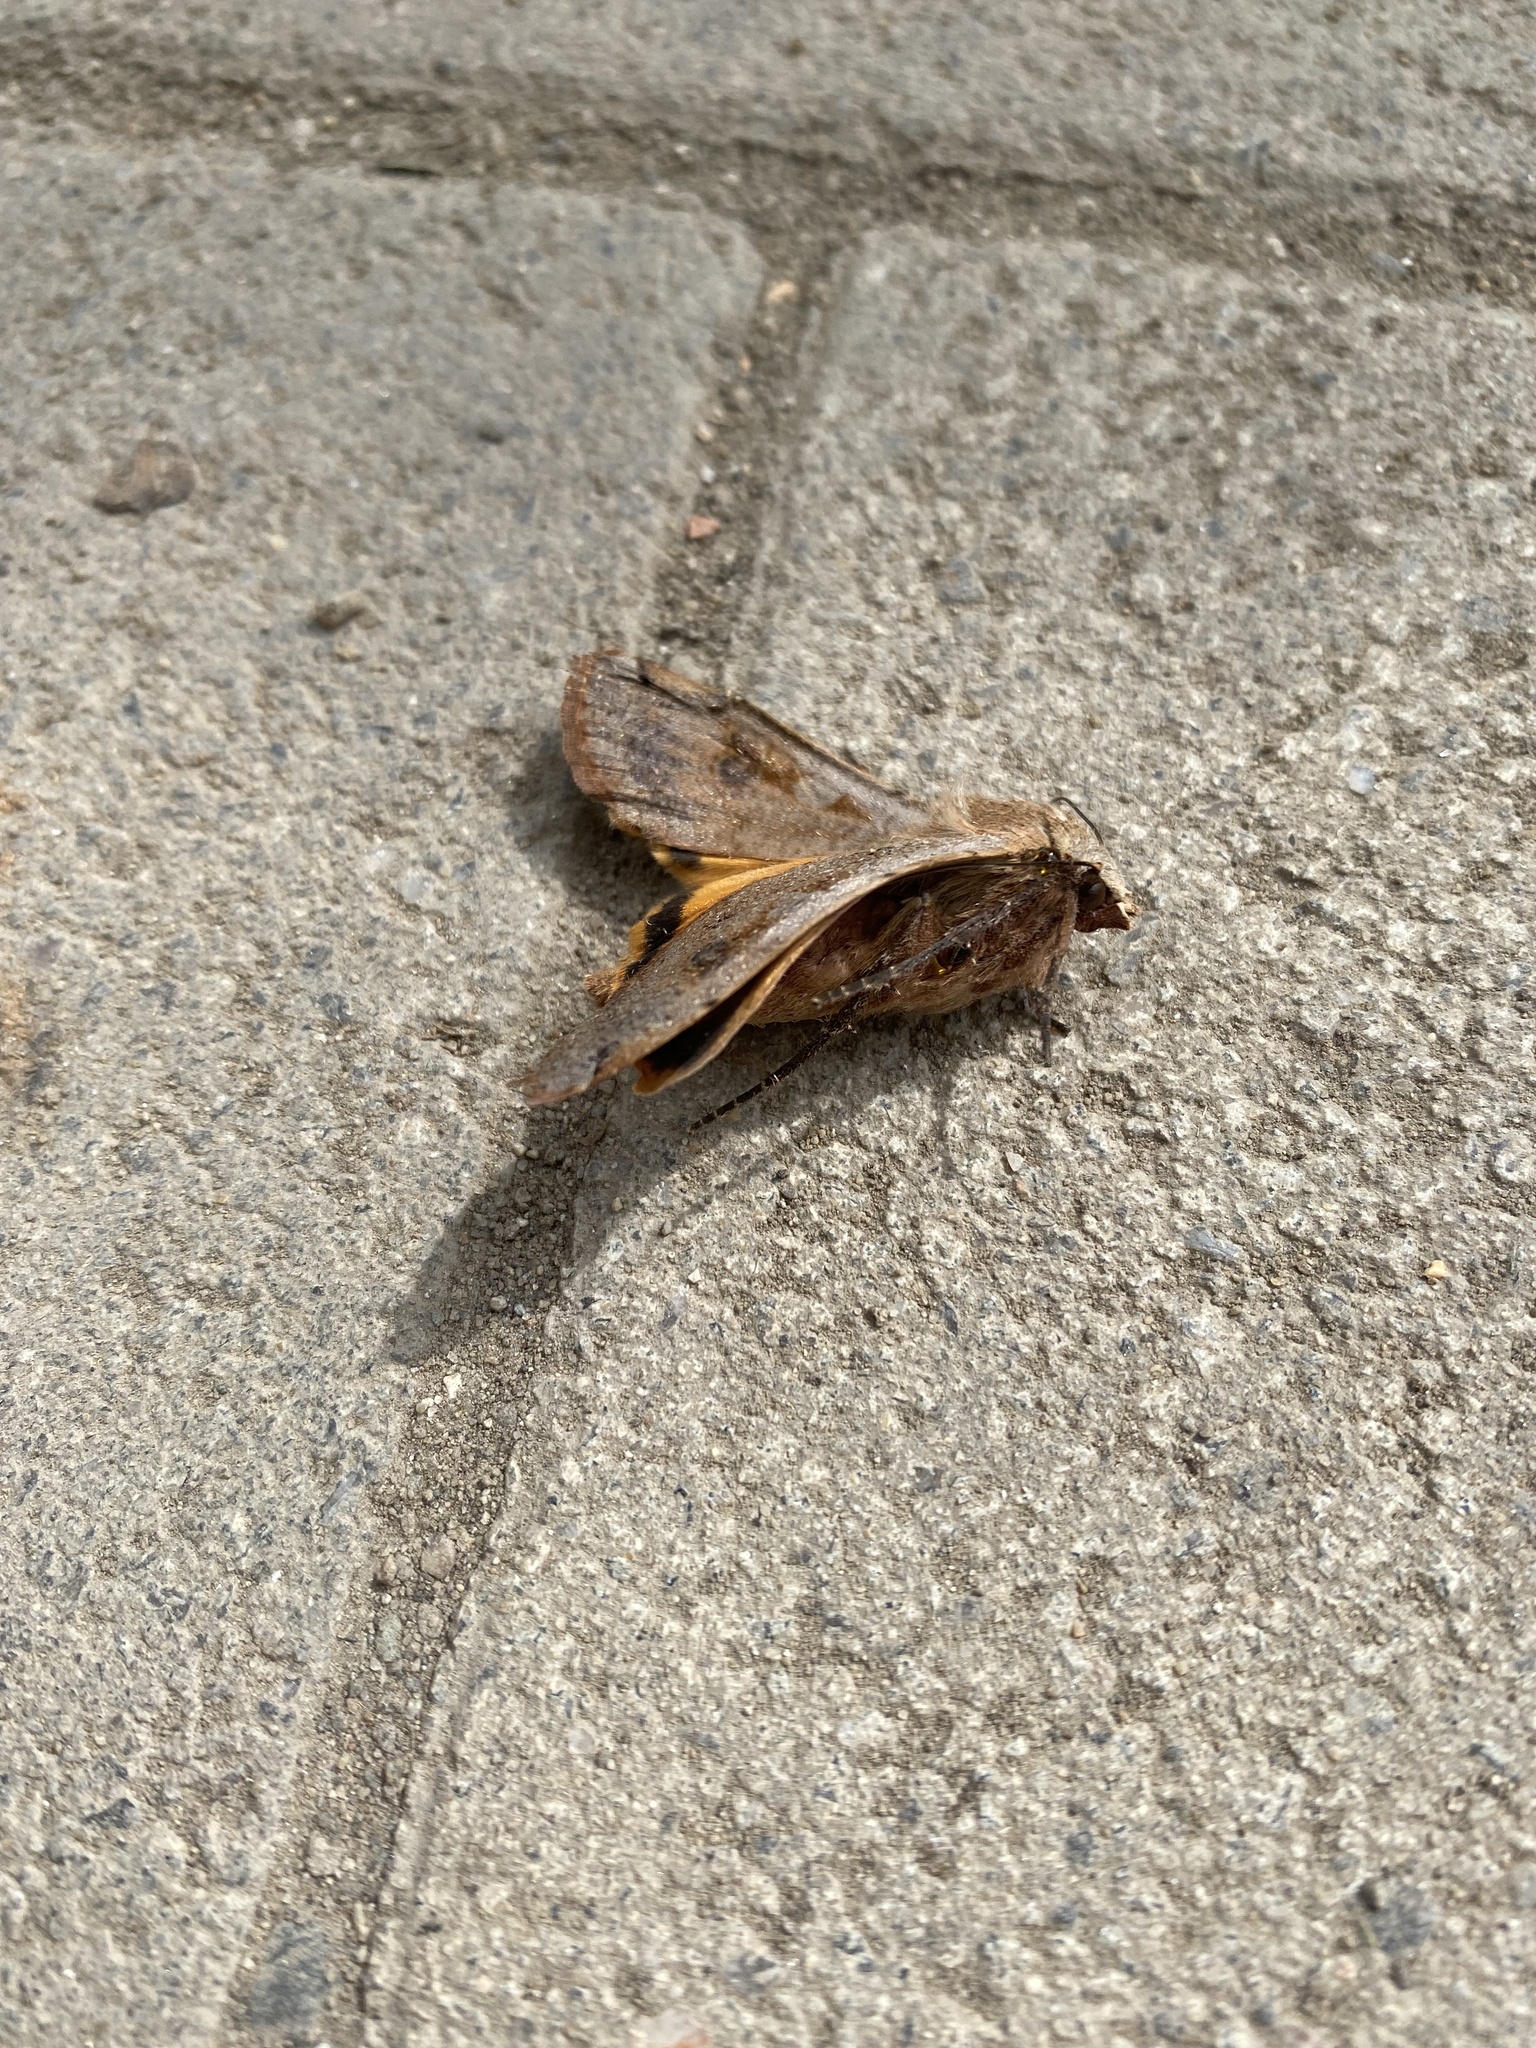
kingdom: Animalia
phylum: Arthropoda
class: Insecta
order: Lepidoptera
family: Noctuidae
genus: Noctua
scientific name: Noctua pronuba
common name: Large yellow underwing
